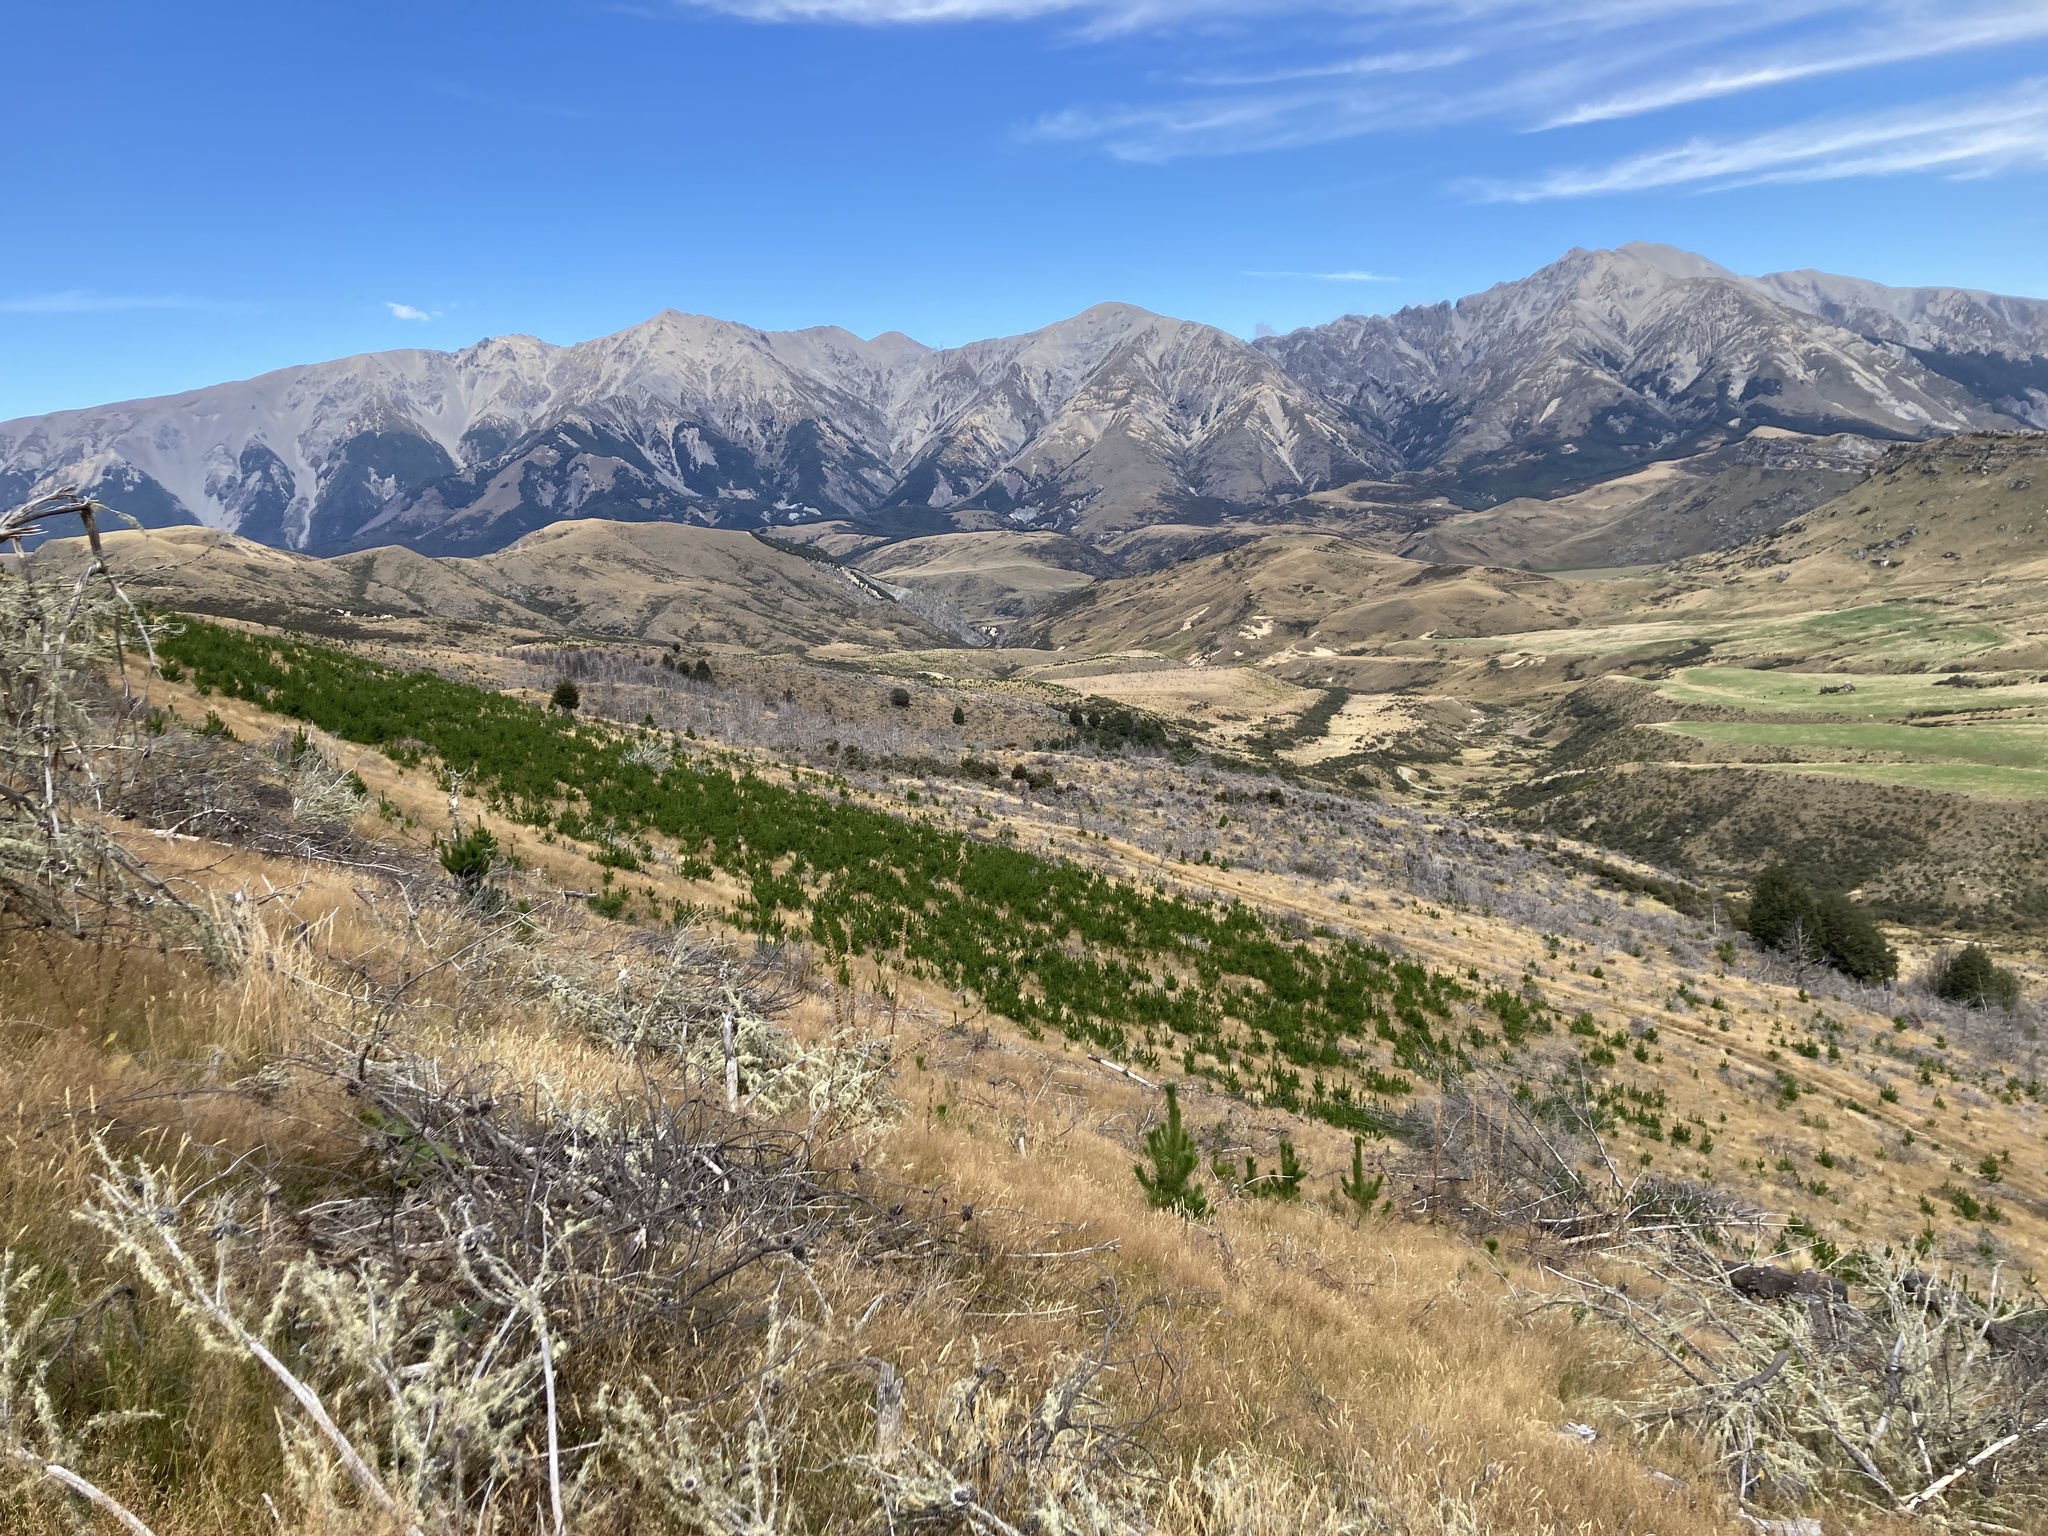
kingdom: Plantae
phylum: Tracheophyta
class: Pinopsida
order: Pinales
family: Pinaceae
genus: Pinus
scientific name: Pinus contorta
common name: Lodgepole pine
